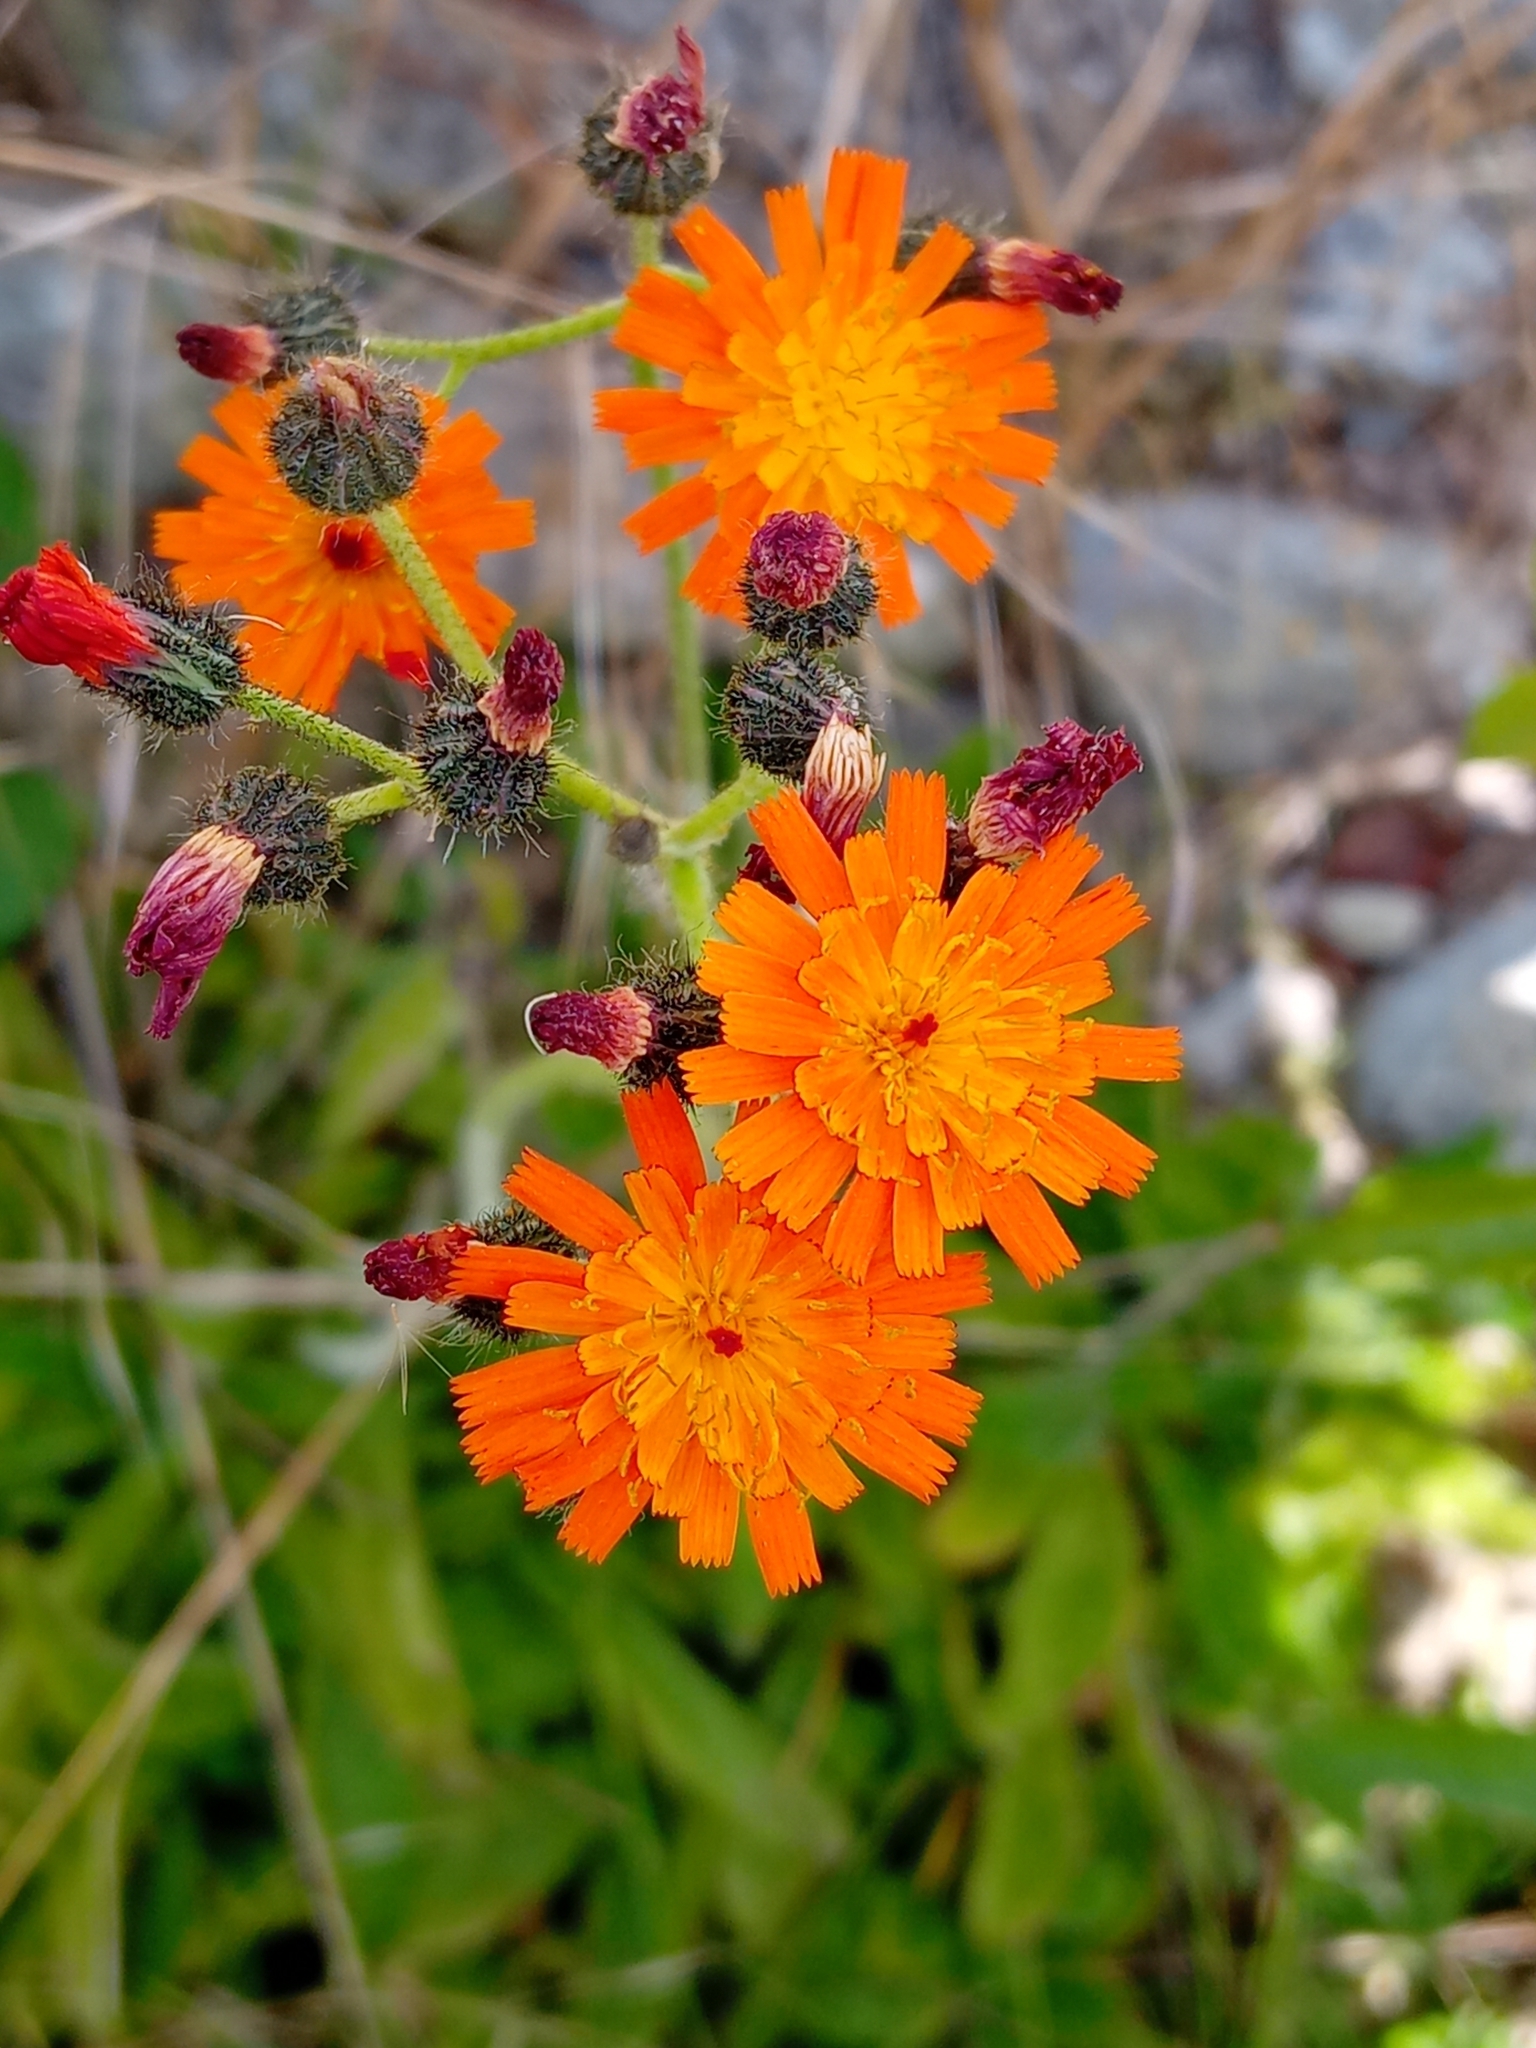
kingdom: Plantae
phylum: Tracheophyta
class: Magnoliopsida
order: Asterales
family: Asteraceae
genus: Pilosella
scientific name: Pilosella aurantiaca
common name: Fox-and-cubs
